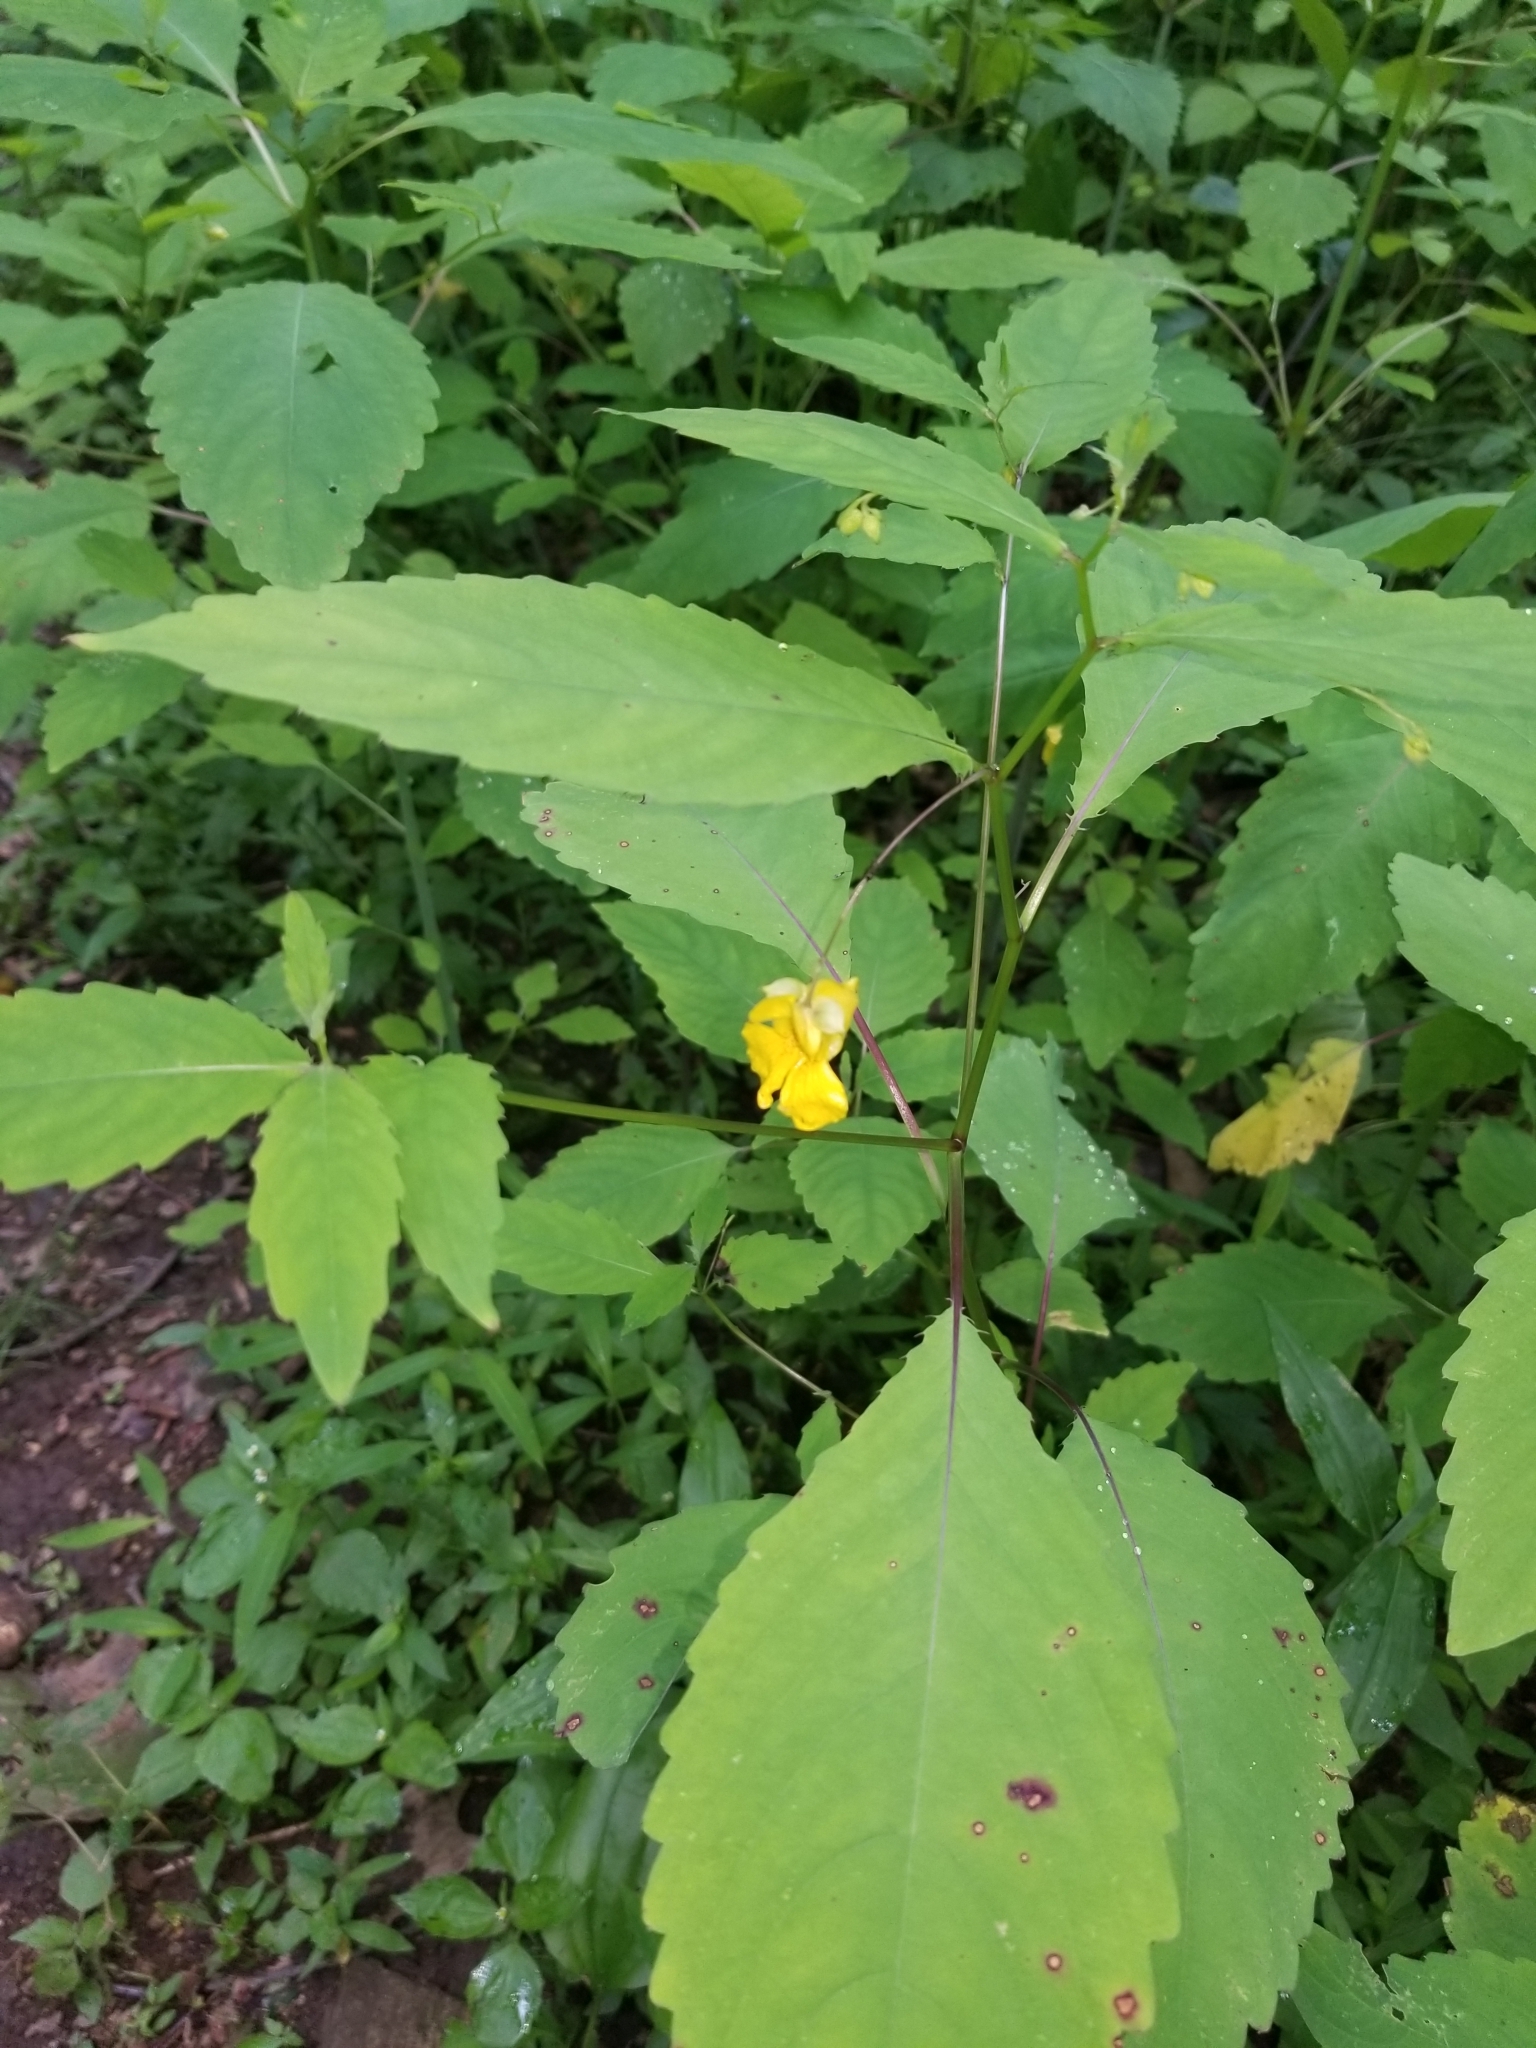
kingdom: Plantae
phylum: Tracheophyta
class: Magnoliopsida
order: Ericales
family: Balsaminaceae
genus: Impatiens
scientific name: Impatiens pallida
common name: Pale snapweed
